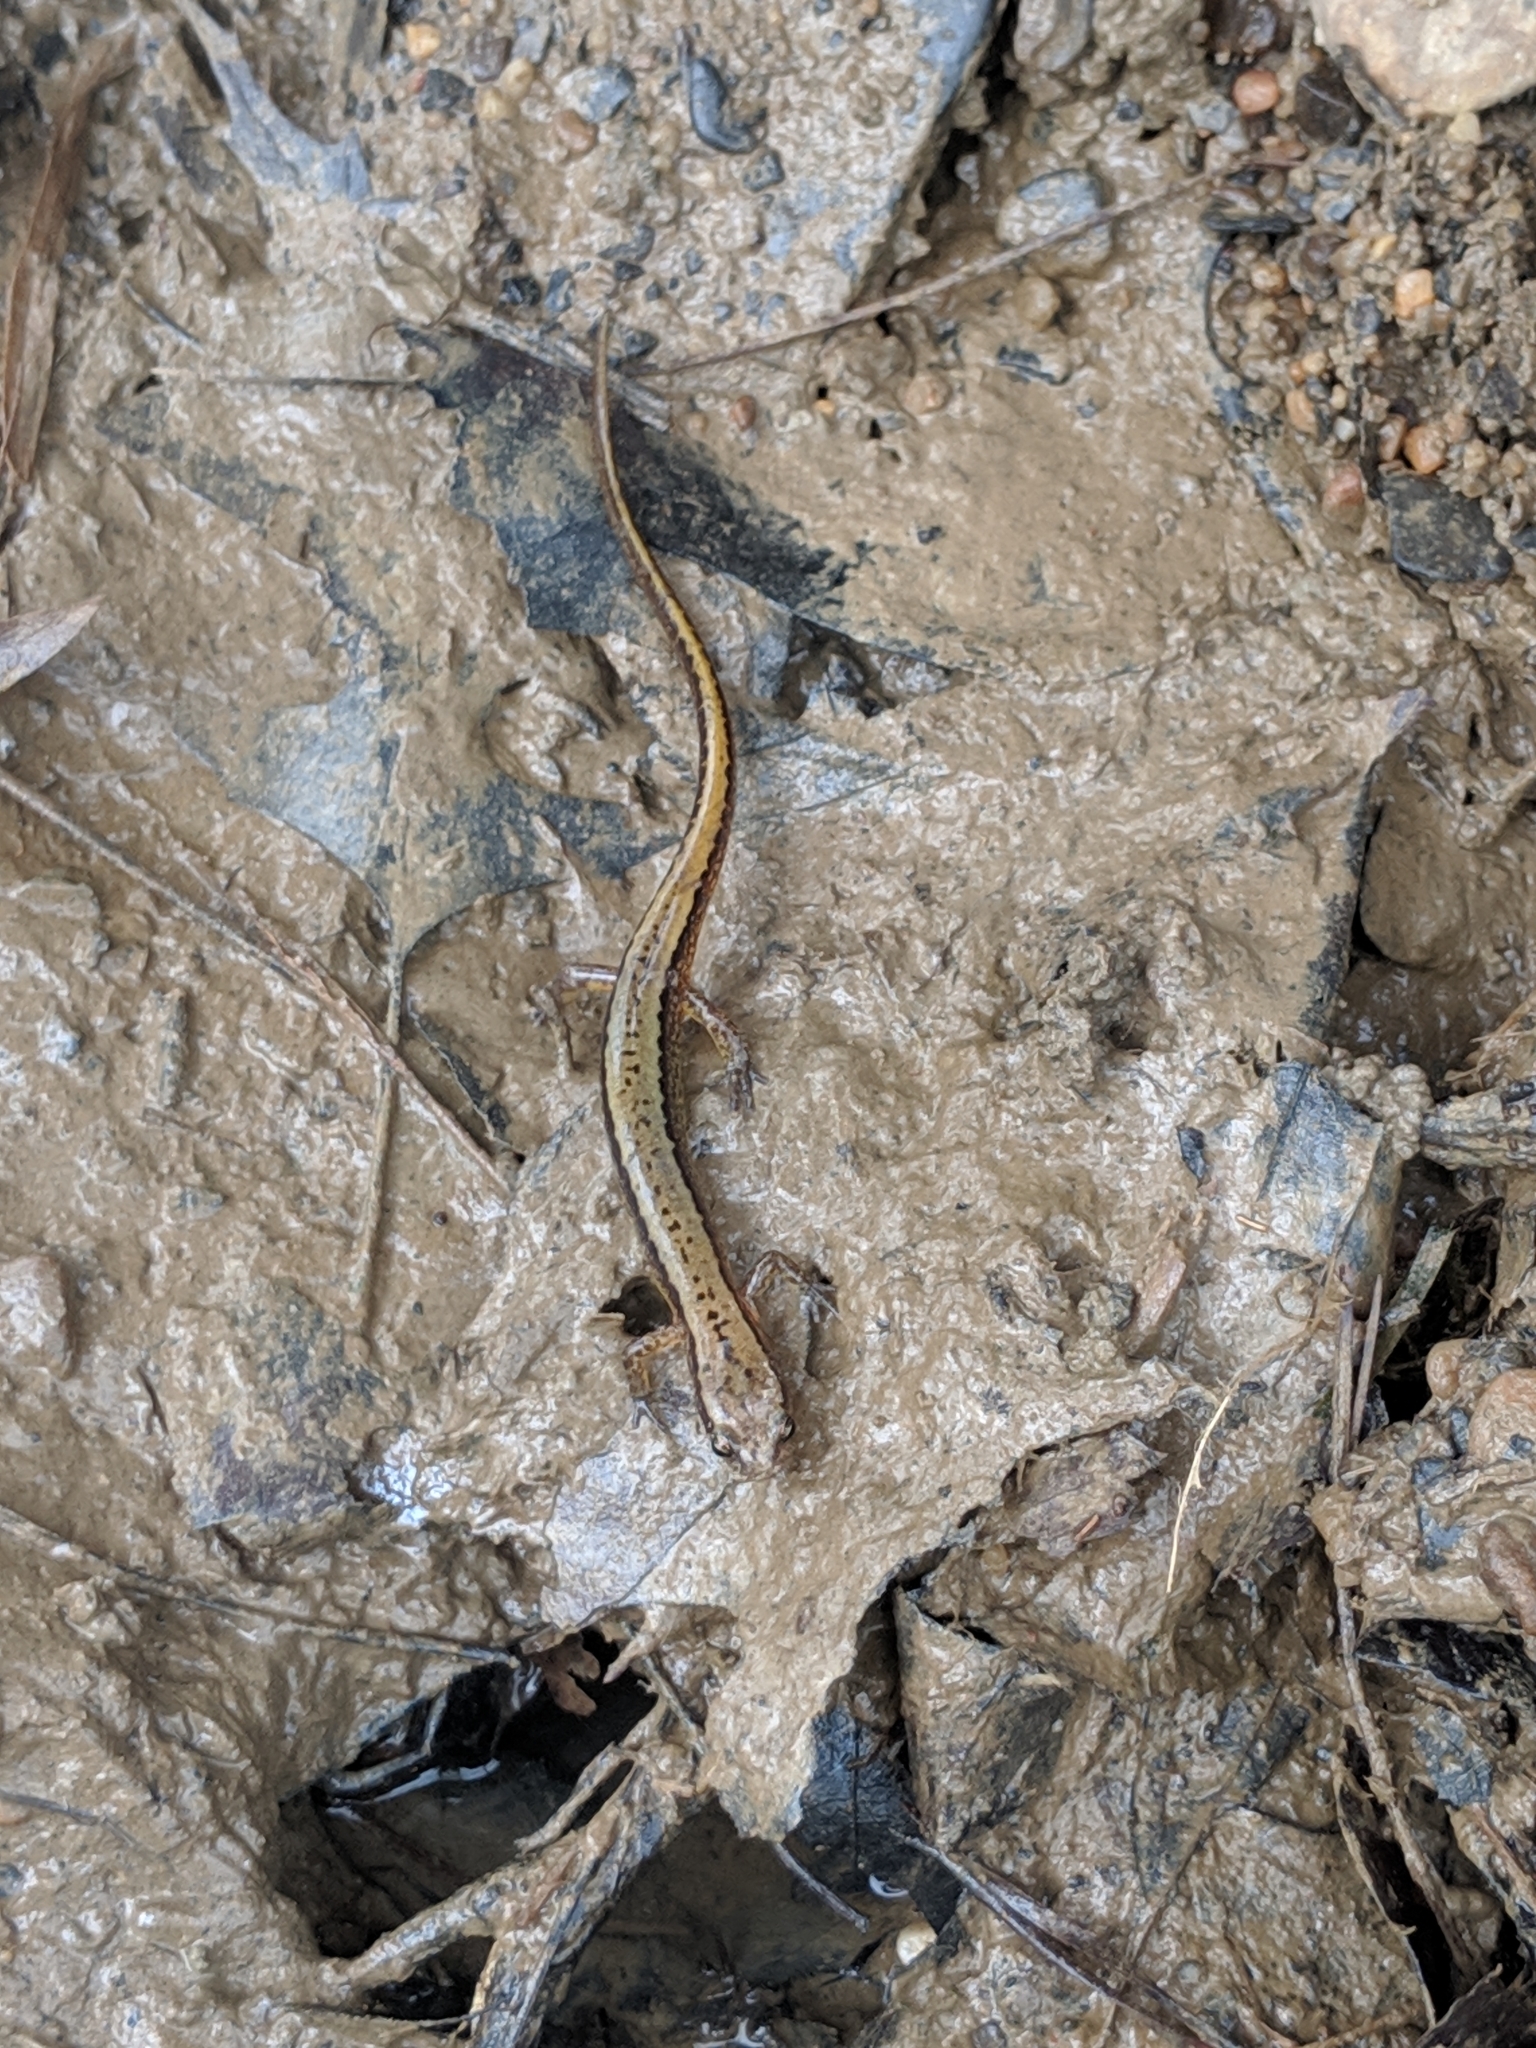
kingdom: Animalia
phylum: Chordata
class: Amphibia
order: Caudata
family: Plethodontidae
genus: Eurycea
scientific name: Eurycea cirrigera
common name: Southern two-lined salamander
